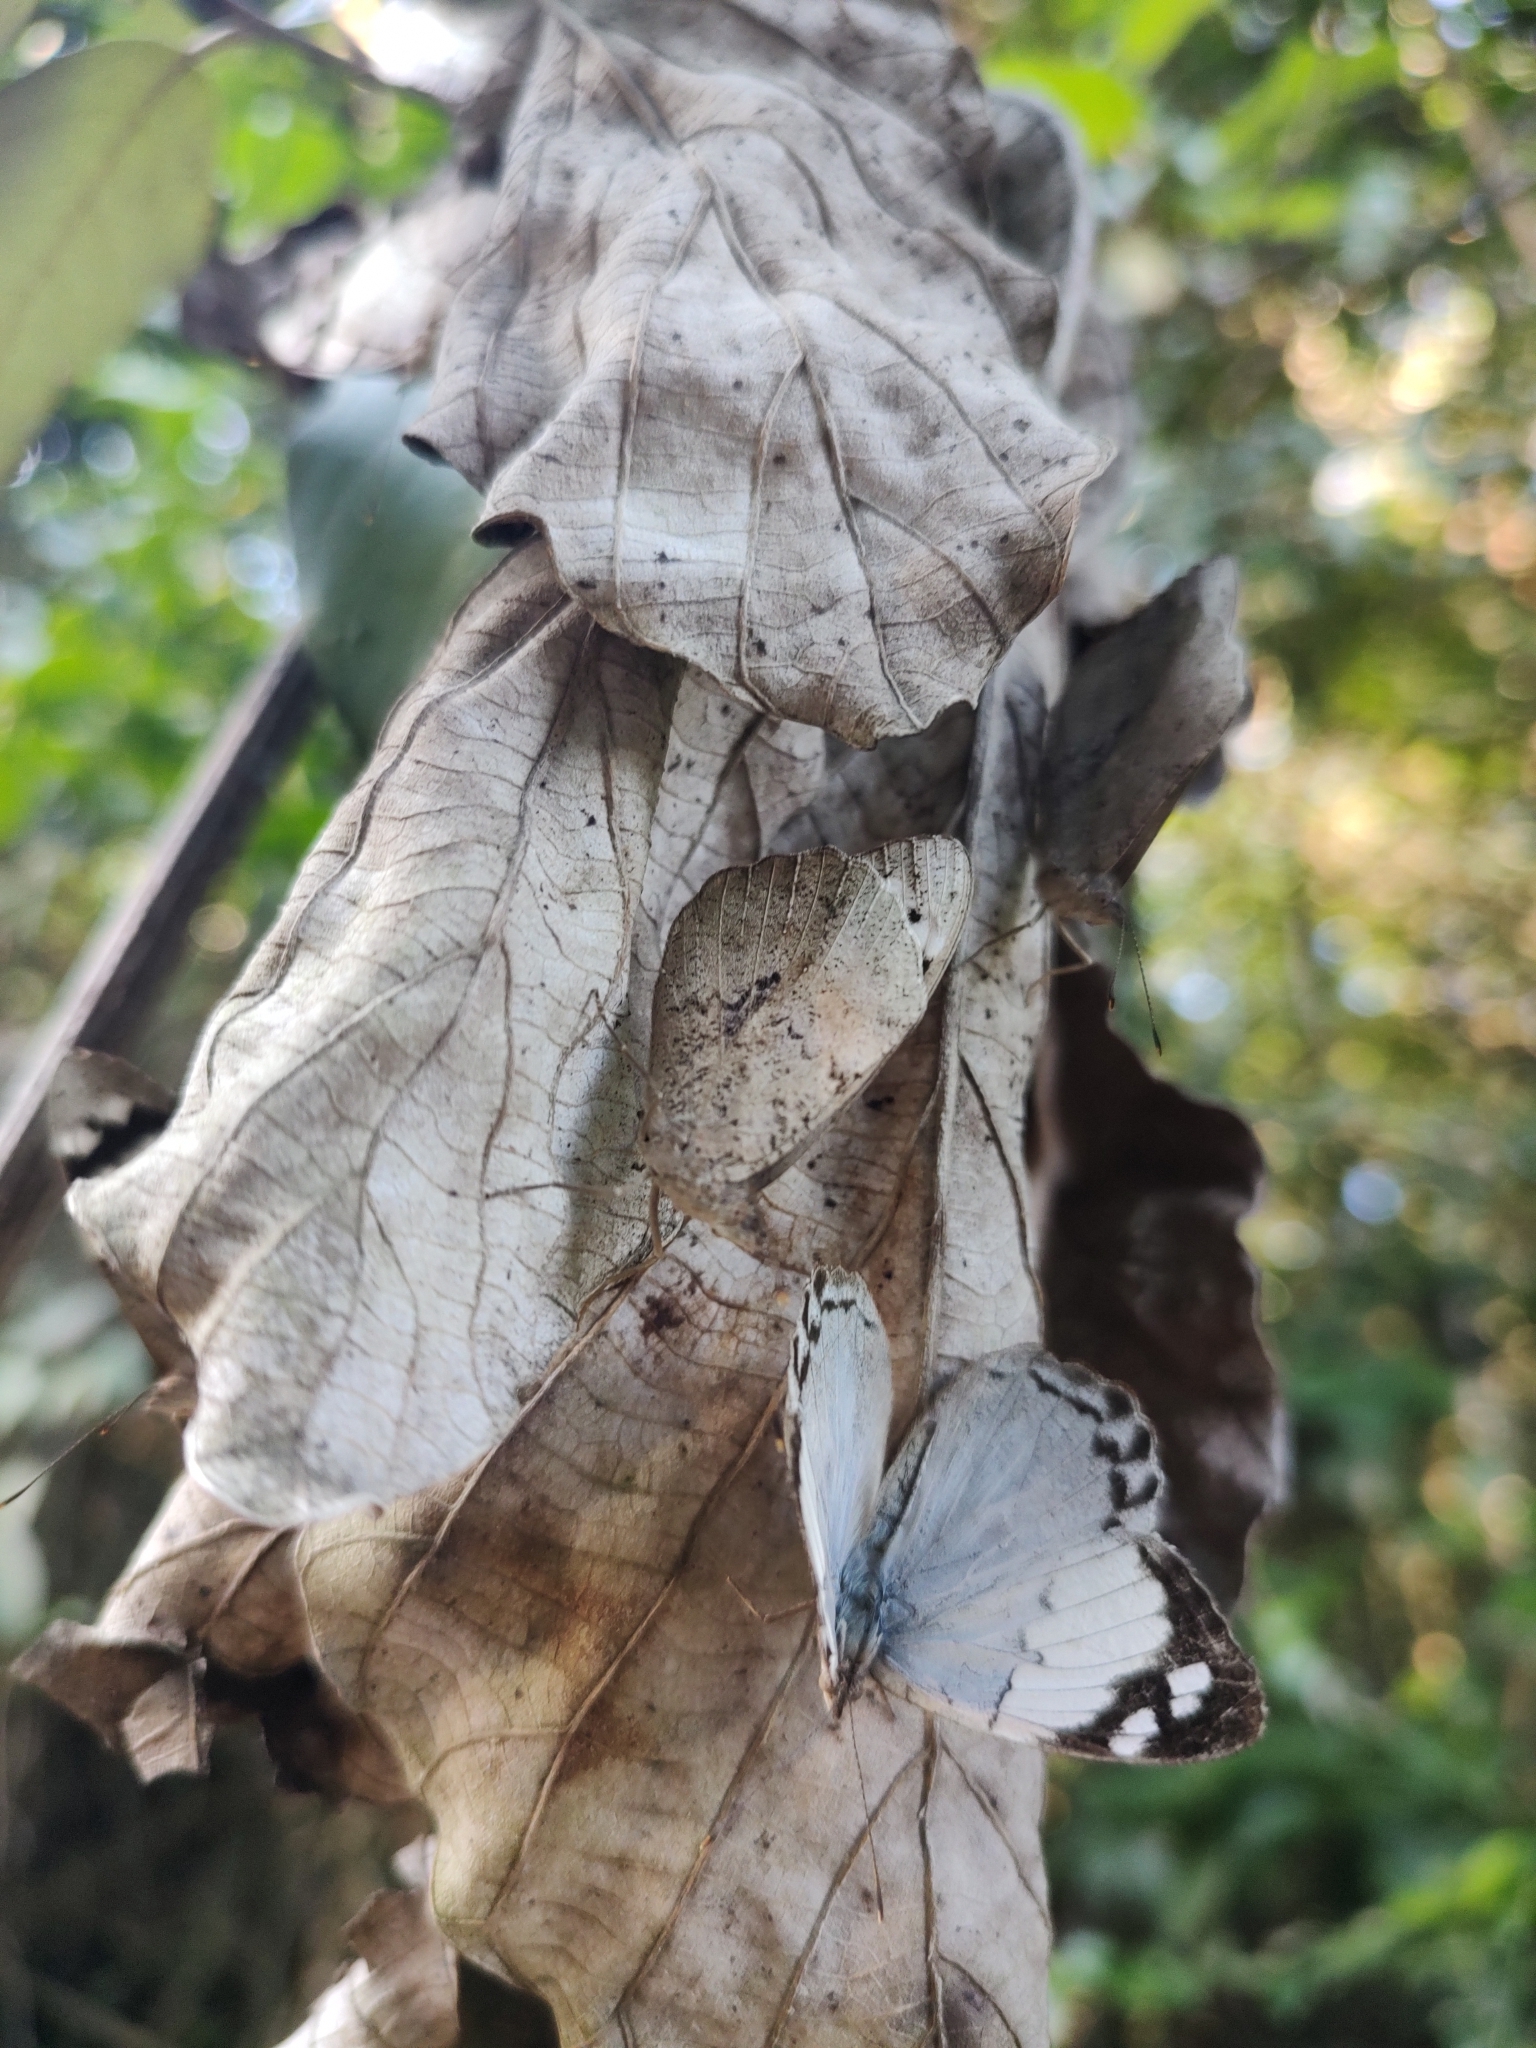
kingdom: Animalia
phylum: Arthropoda
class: Insecta
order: Lepidoptera
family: Nymphalidae
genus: Eunica
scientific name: Eunica eburnea
